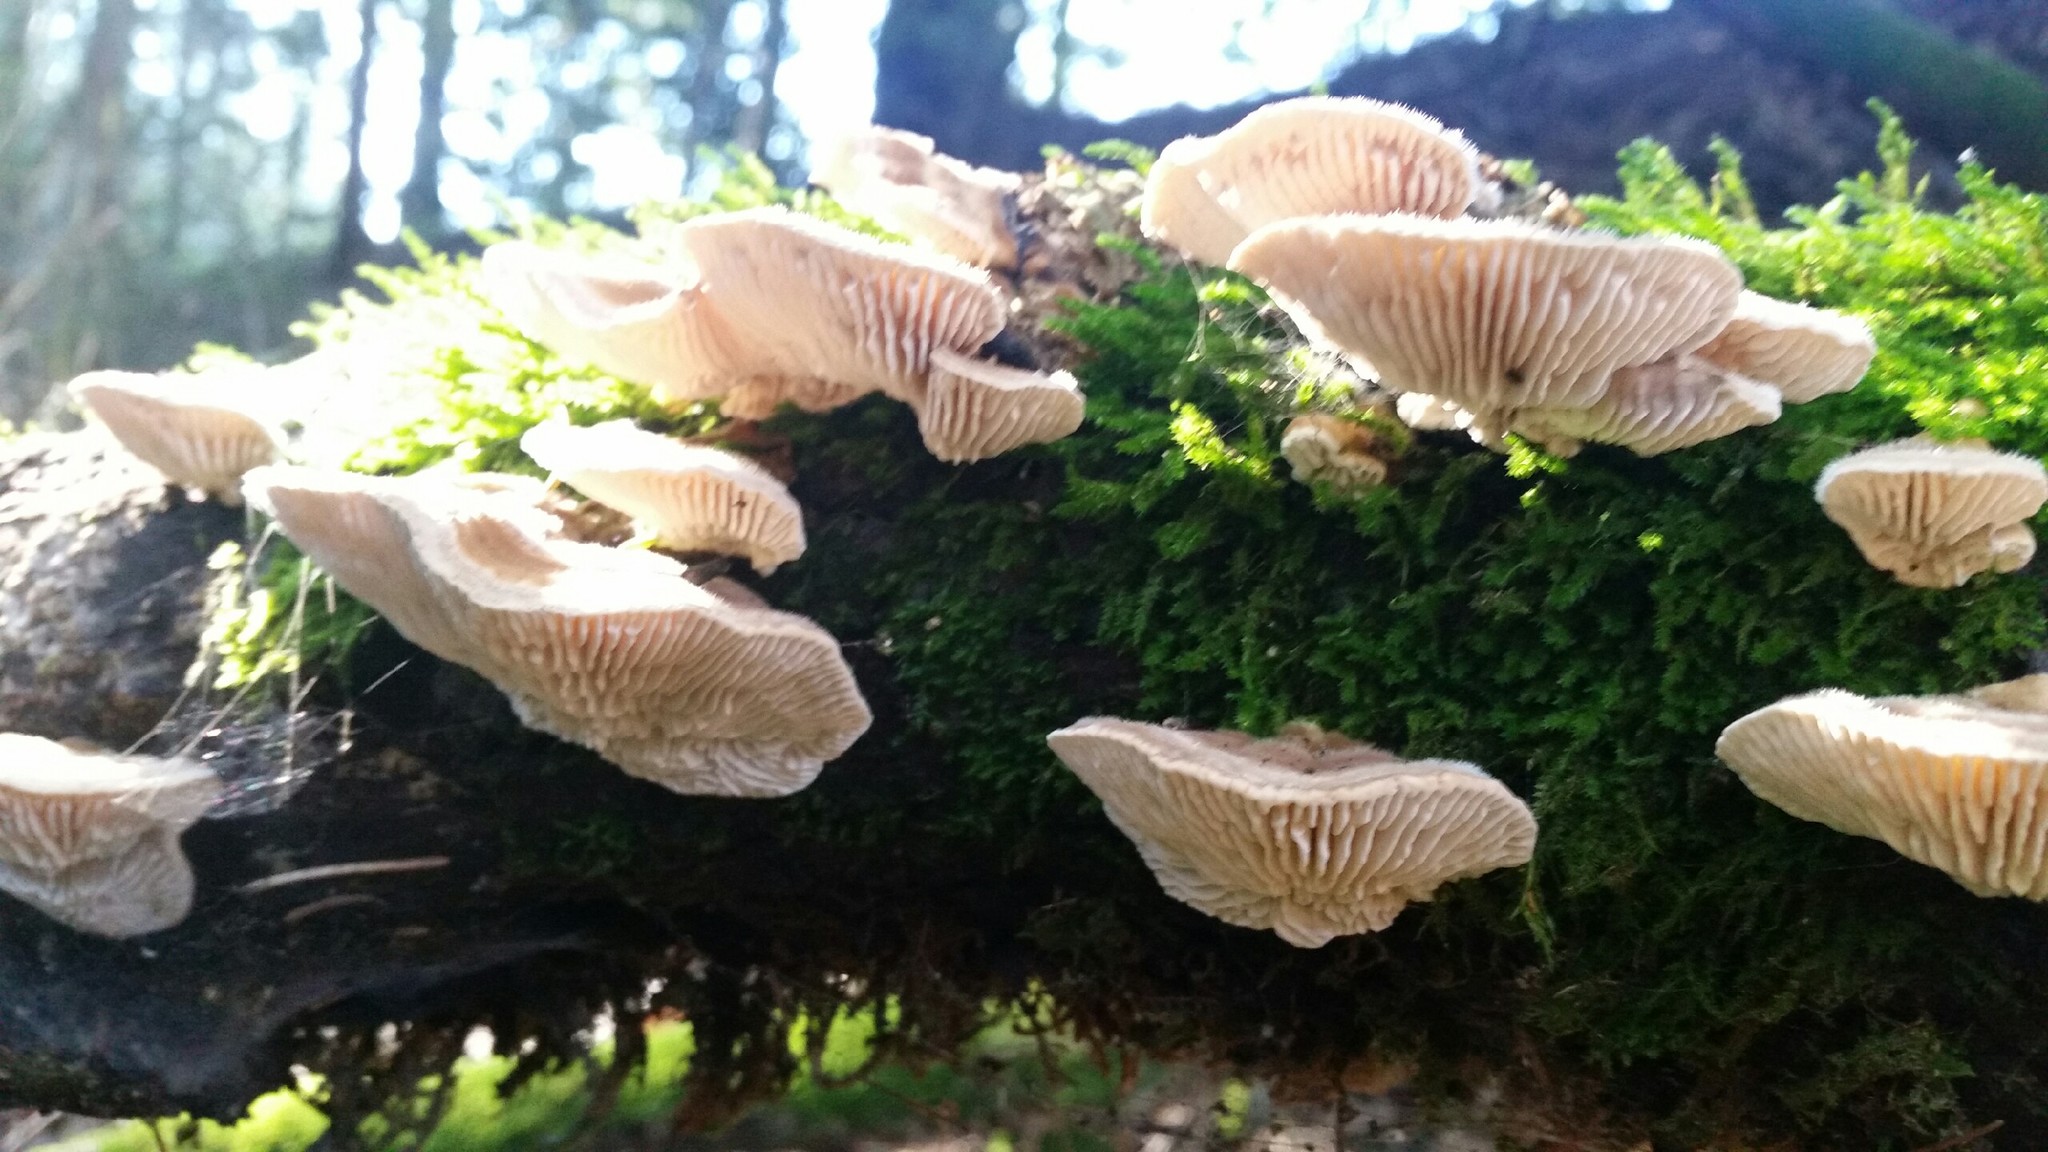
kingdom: Fungi
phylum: Basidiomycota
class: Agaricomycetes
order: Polyporales
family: Polyporaceae
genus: Lenzites
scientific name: Lenzites betulinus
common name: Birch mazegill
